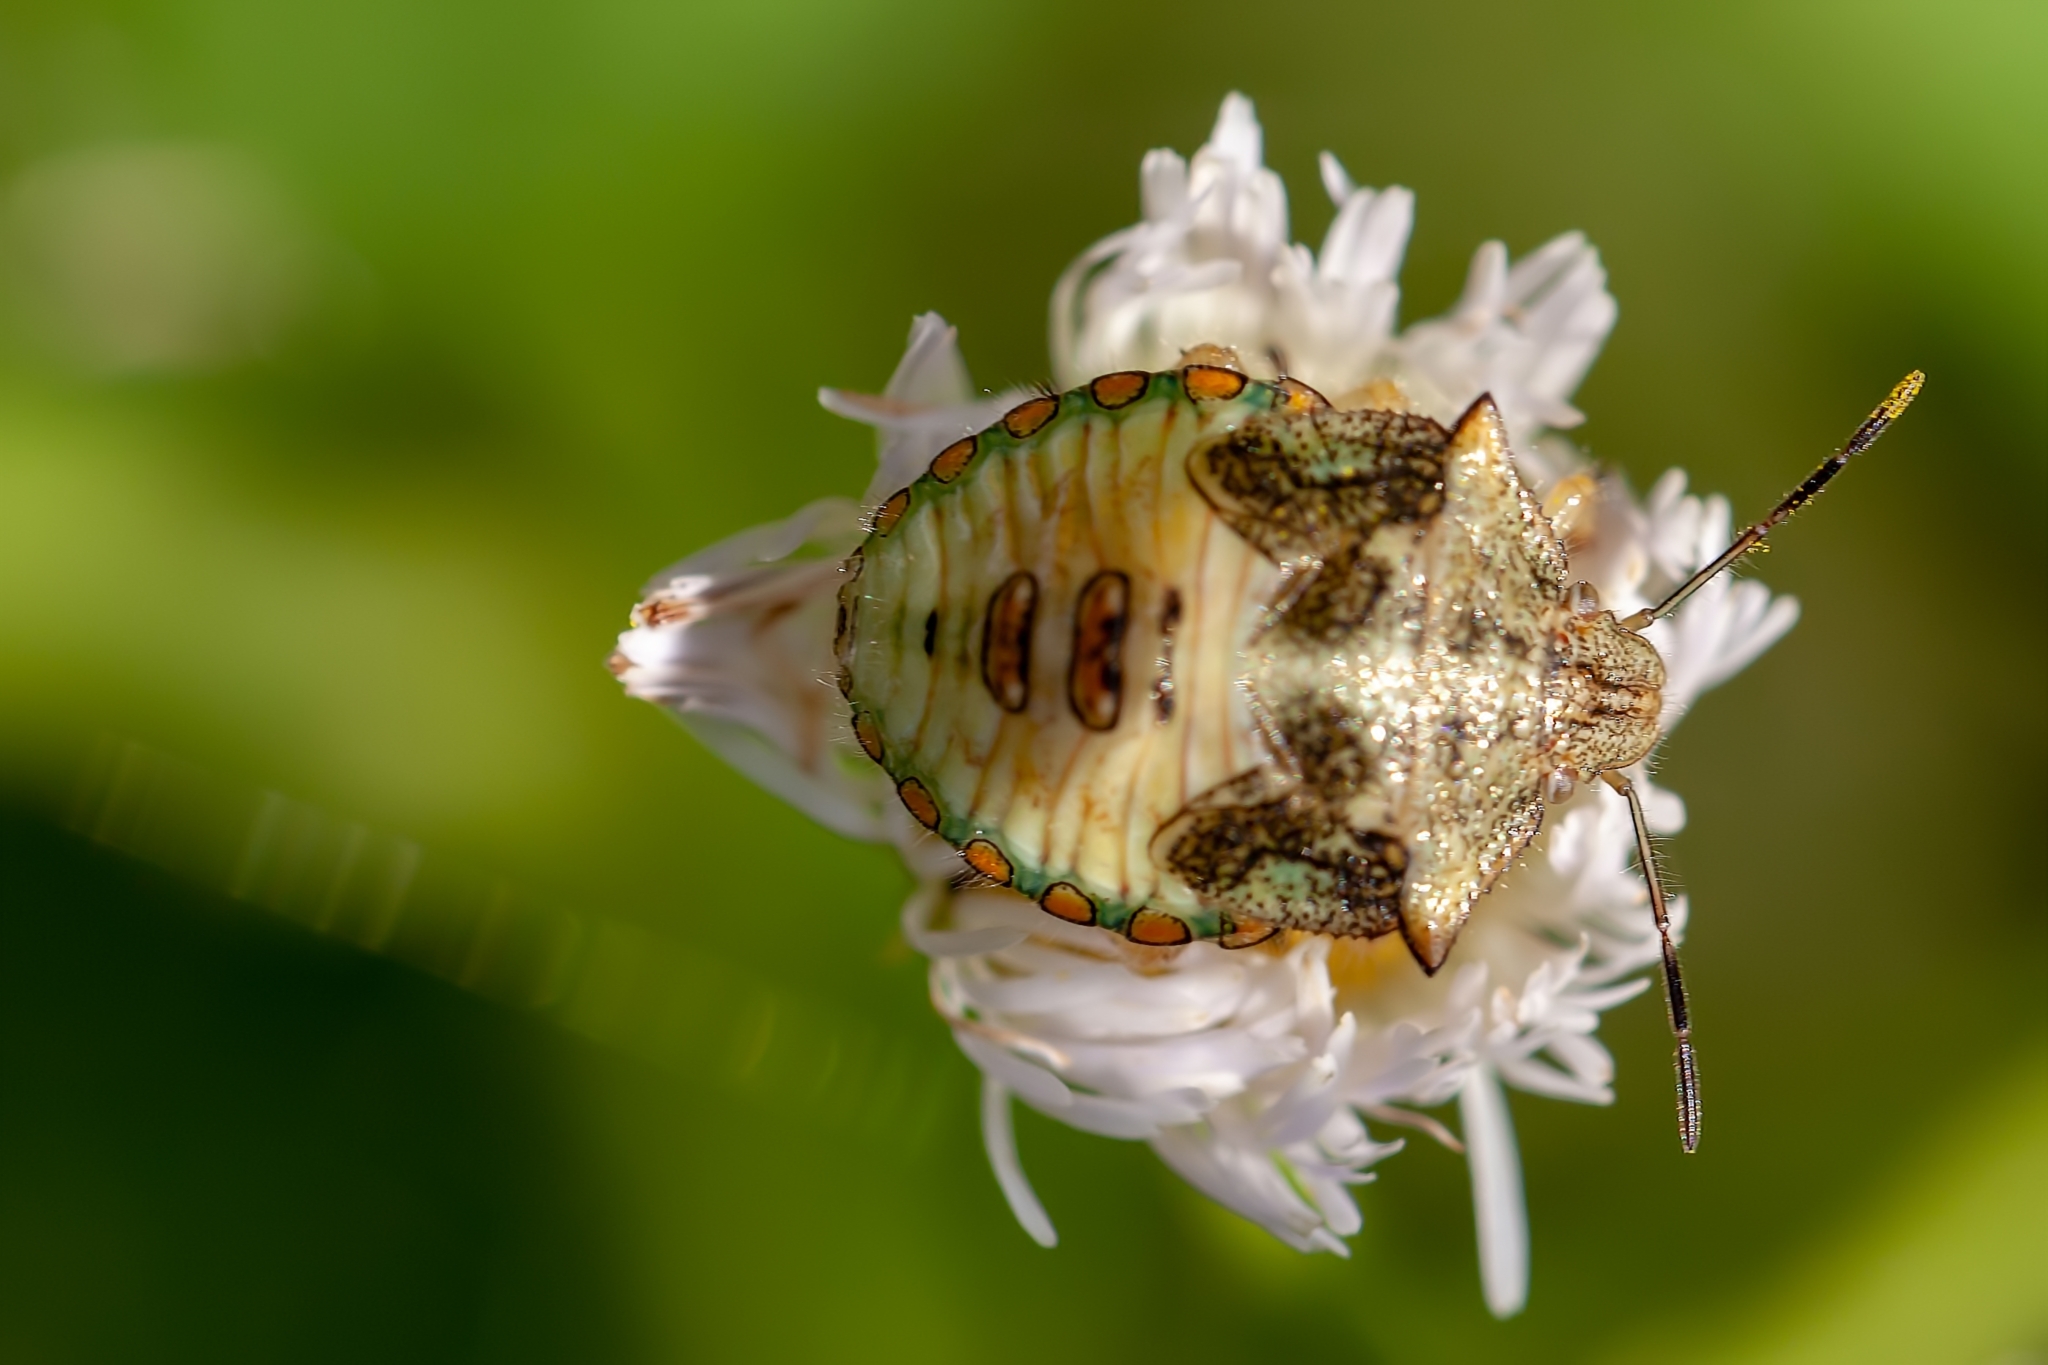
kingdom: Animalia
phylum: Arthropoda
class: Insecta
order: Hemiptera
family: Pentatomidae
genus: Thyanta
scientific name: Thyanta perditor
